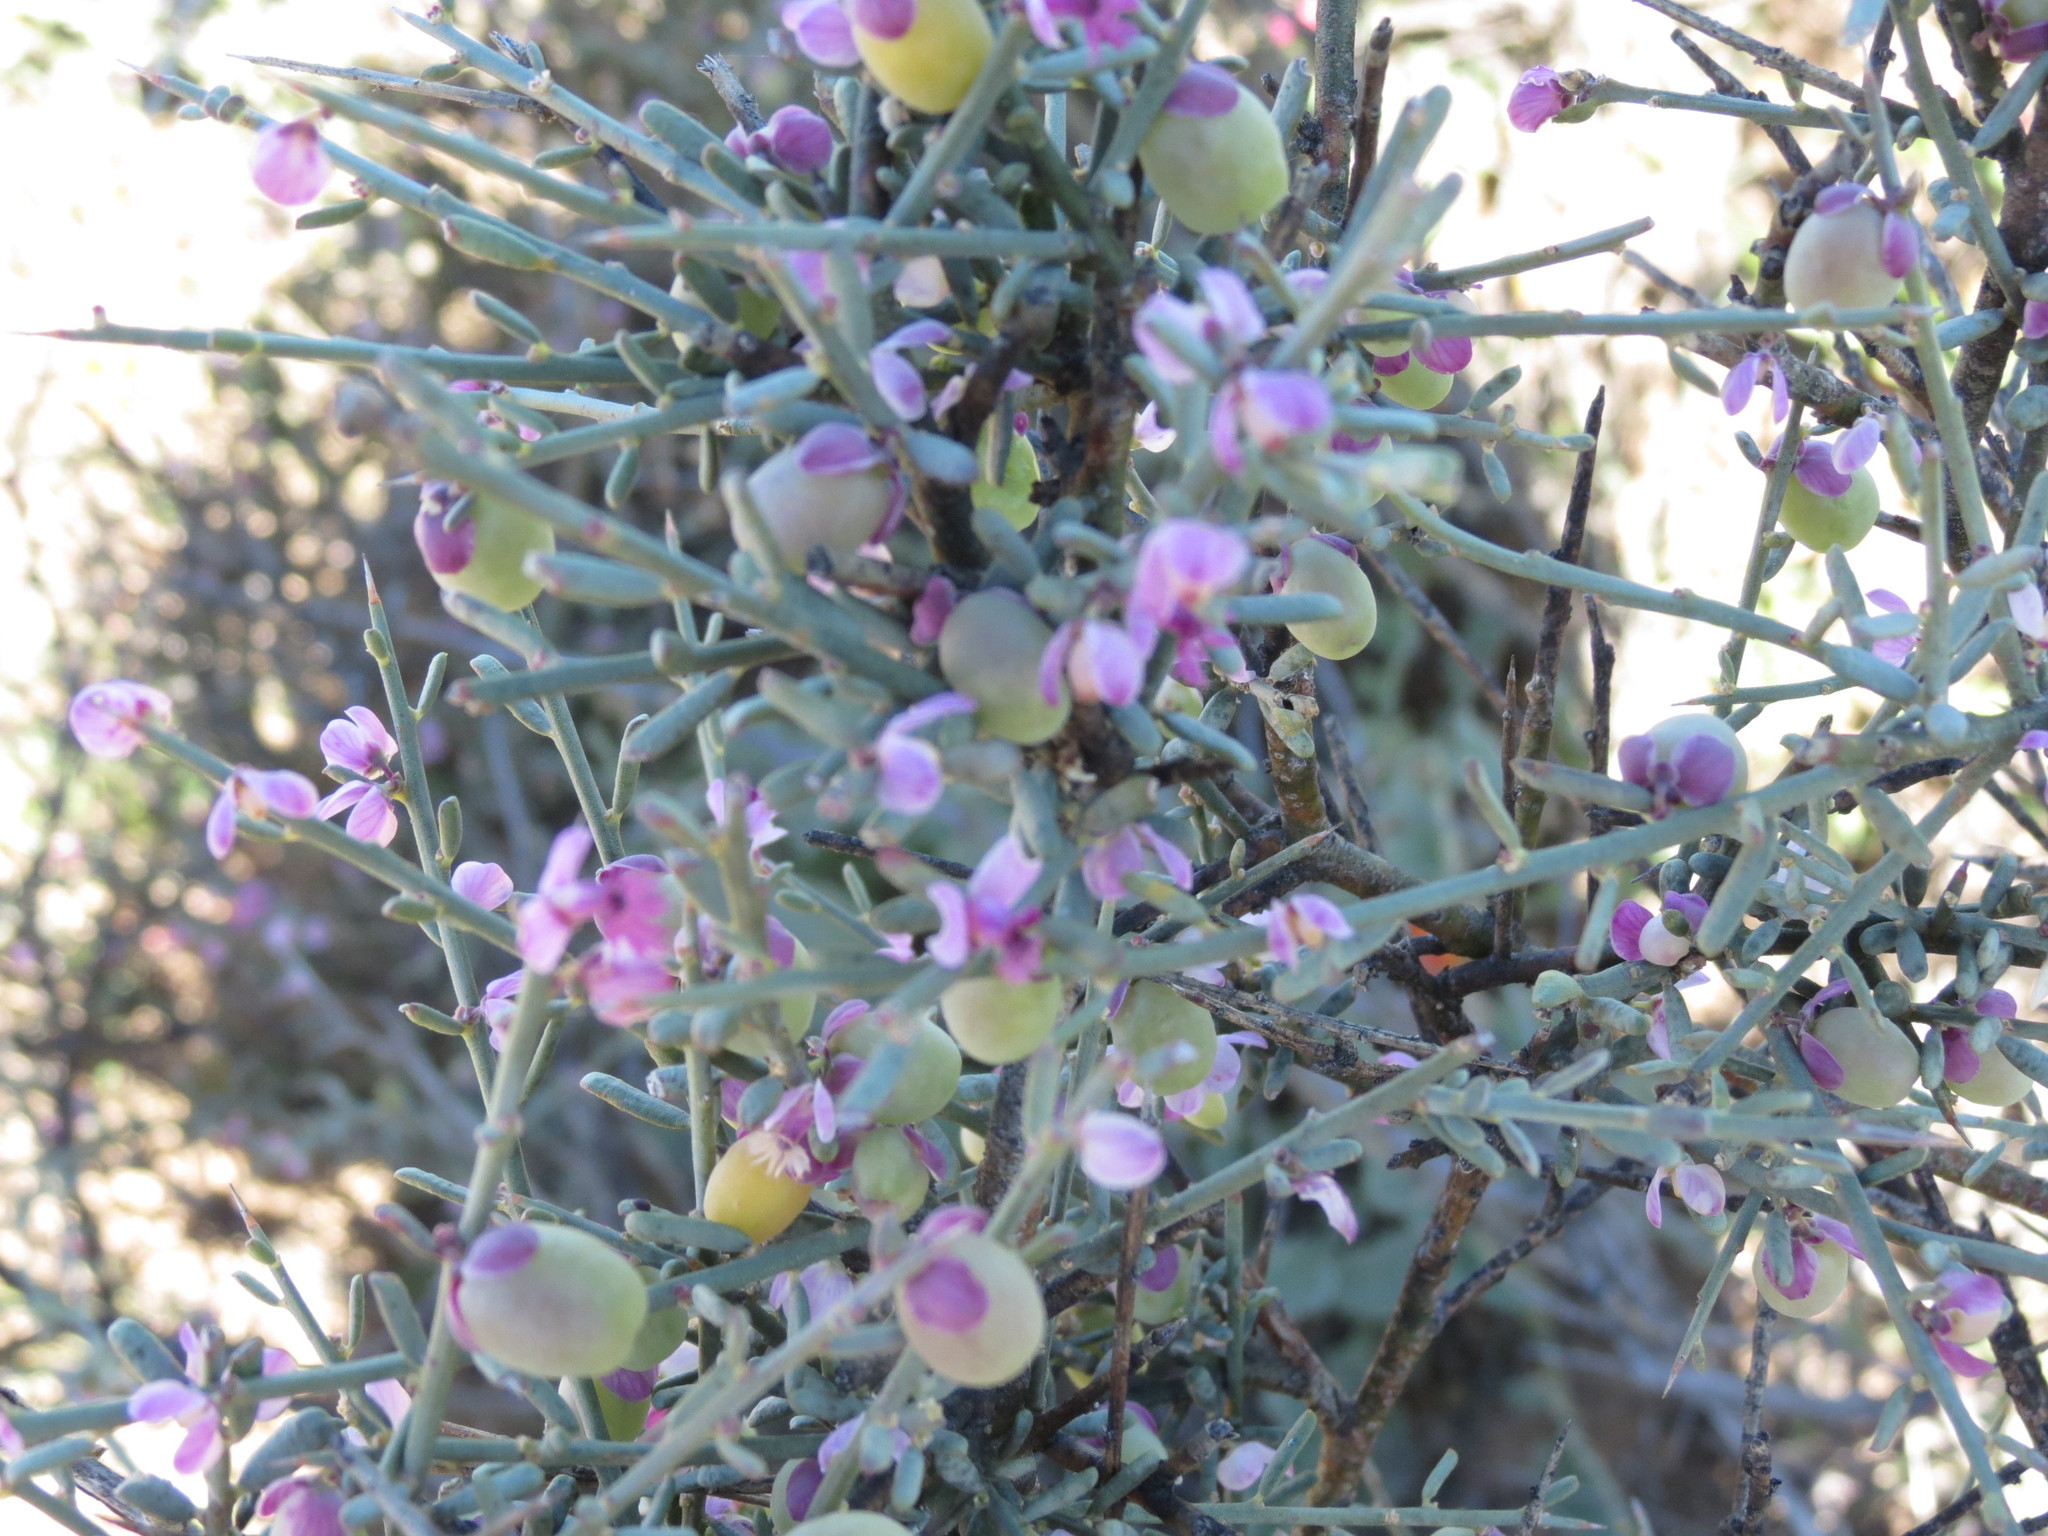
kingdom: Plantae
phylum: Tracheophyta
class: Magnoliopsida
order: Fabales
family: Polygalaceae
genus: Muraltia
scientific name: Muraltia spinosa
